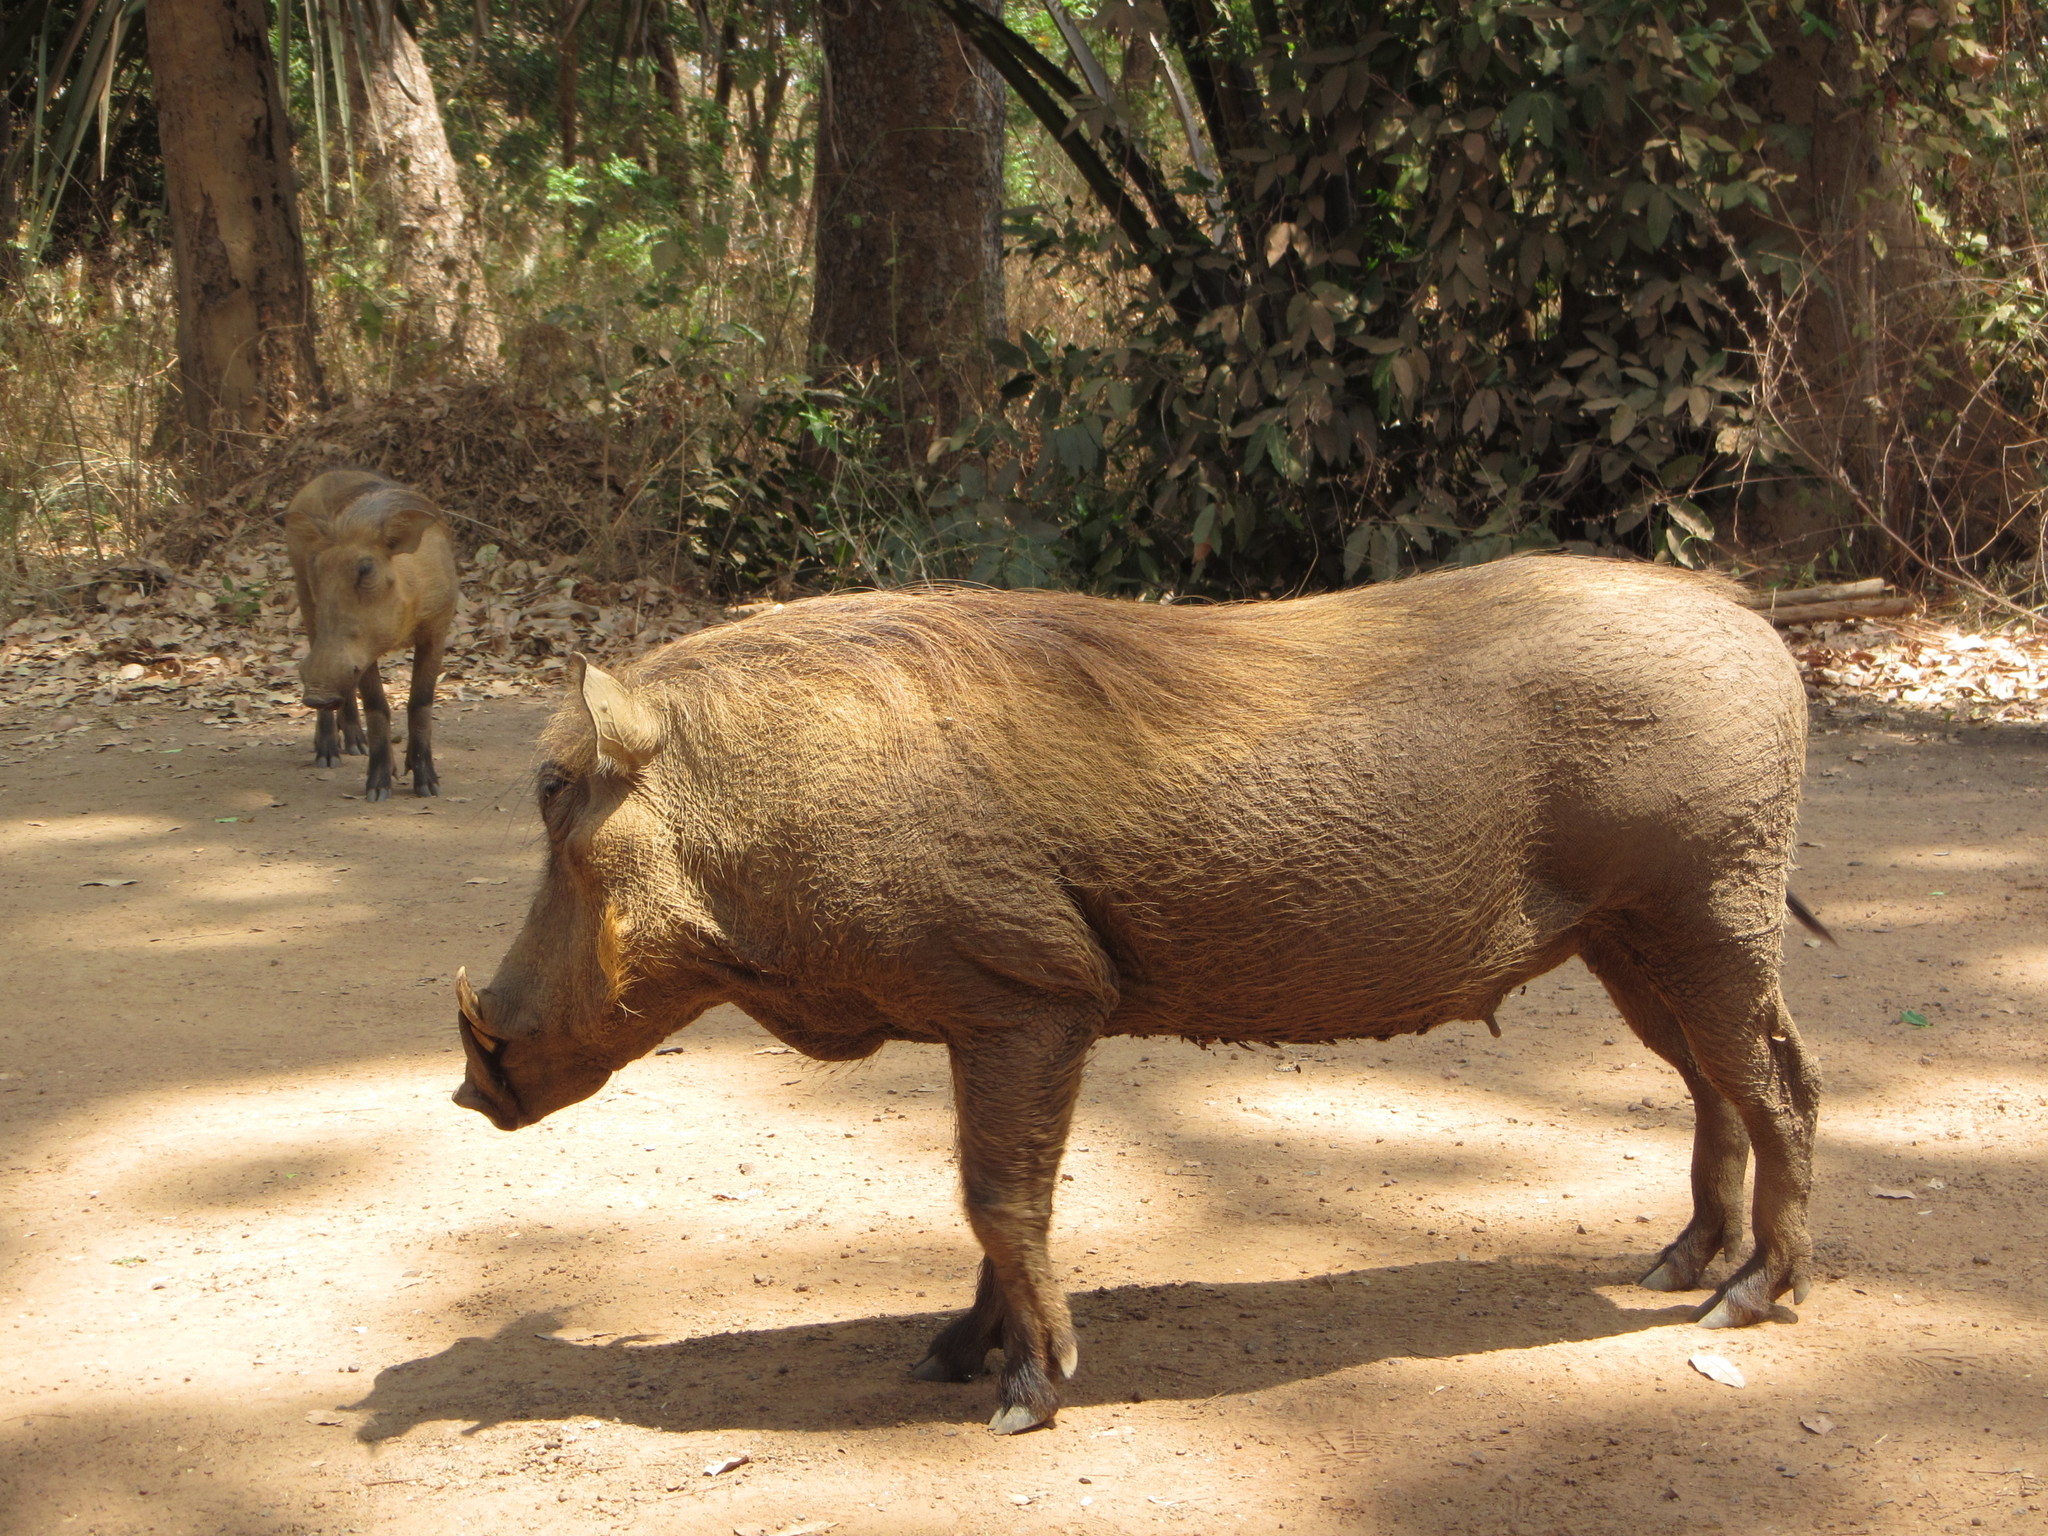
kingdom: Animalia
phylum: Chordata
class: Mammalia
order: Artiodactyla
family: Suidae
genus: Phacochoerus
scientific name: Phacochoerus africanus
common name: Common warthog
